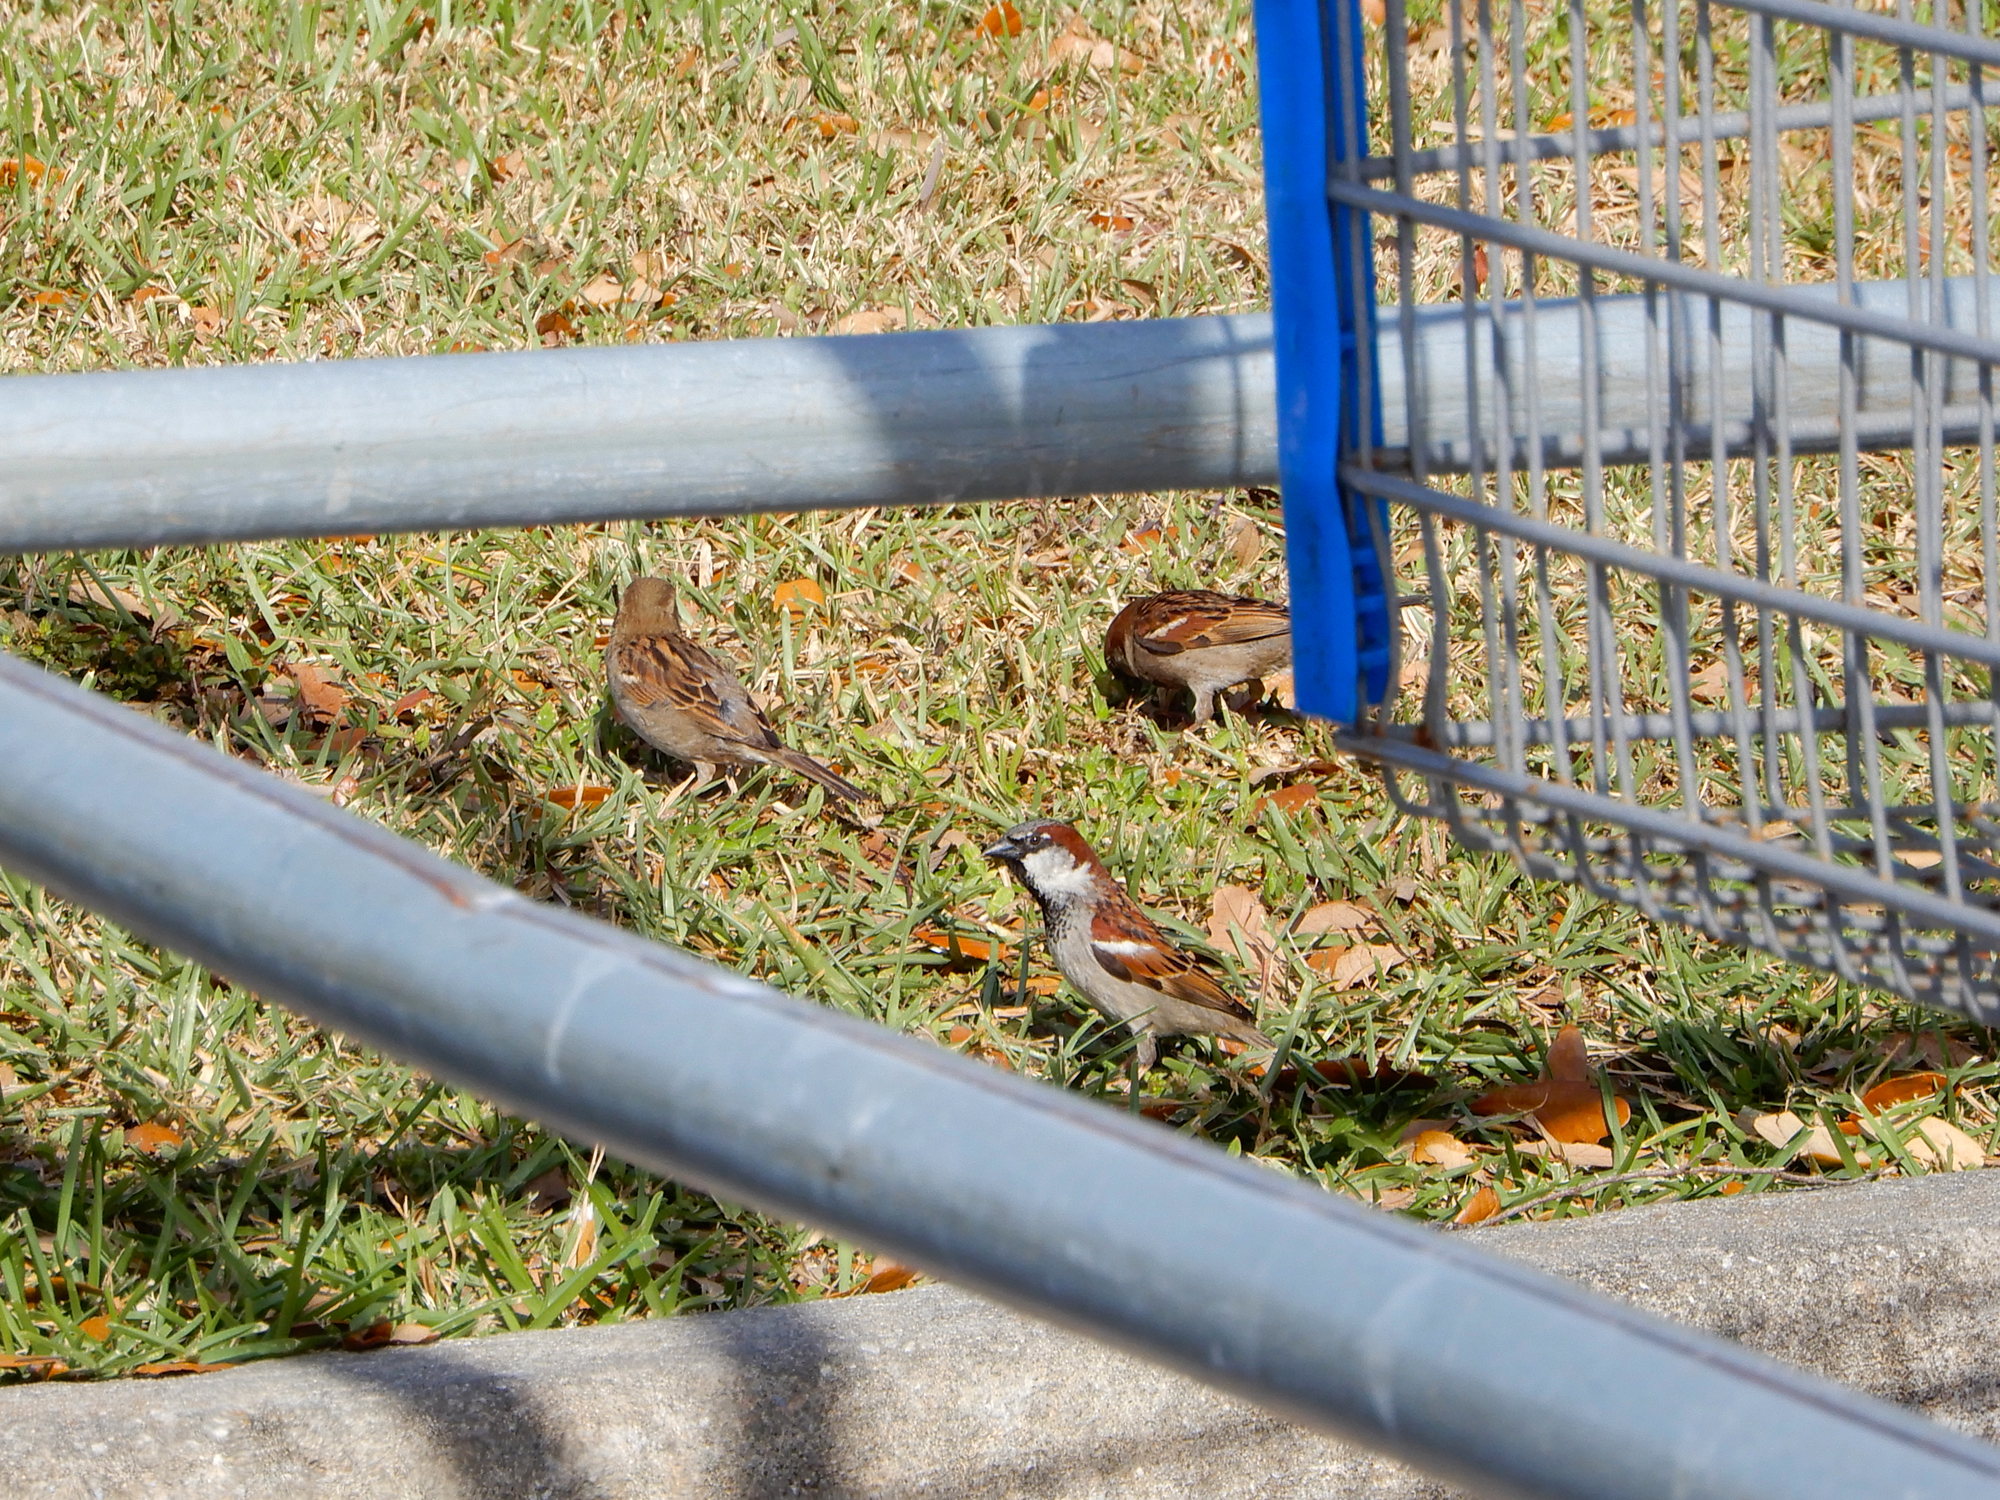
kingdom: Animalia
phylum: Chordata
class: Aves
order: Passeriformes
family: Passeridae
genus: Passer
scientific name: Passer domesticus
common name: House sparrow
